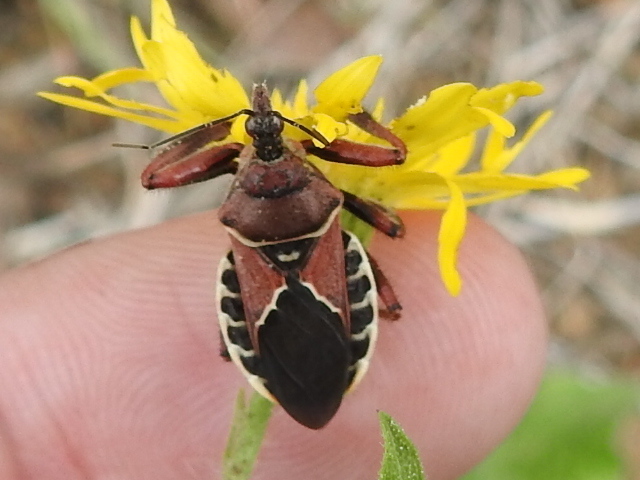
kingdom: Animalia
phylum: Arthropoda
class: Insecta
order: Hemiptera
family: Reduviidae
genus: Apiomerus
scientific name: Apiomerus spissipes
